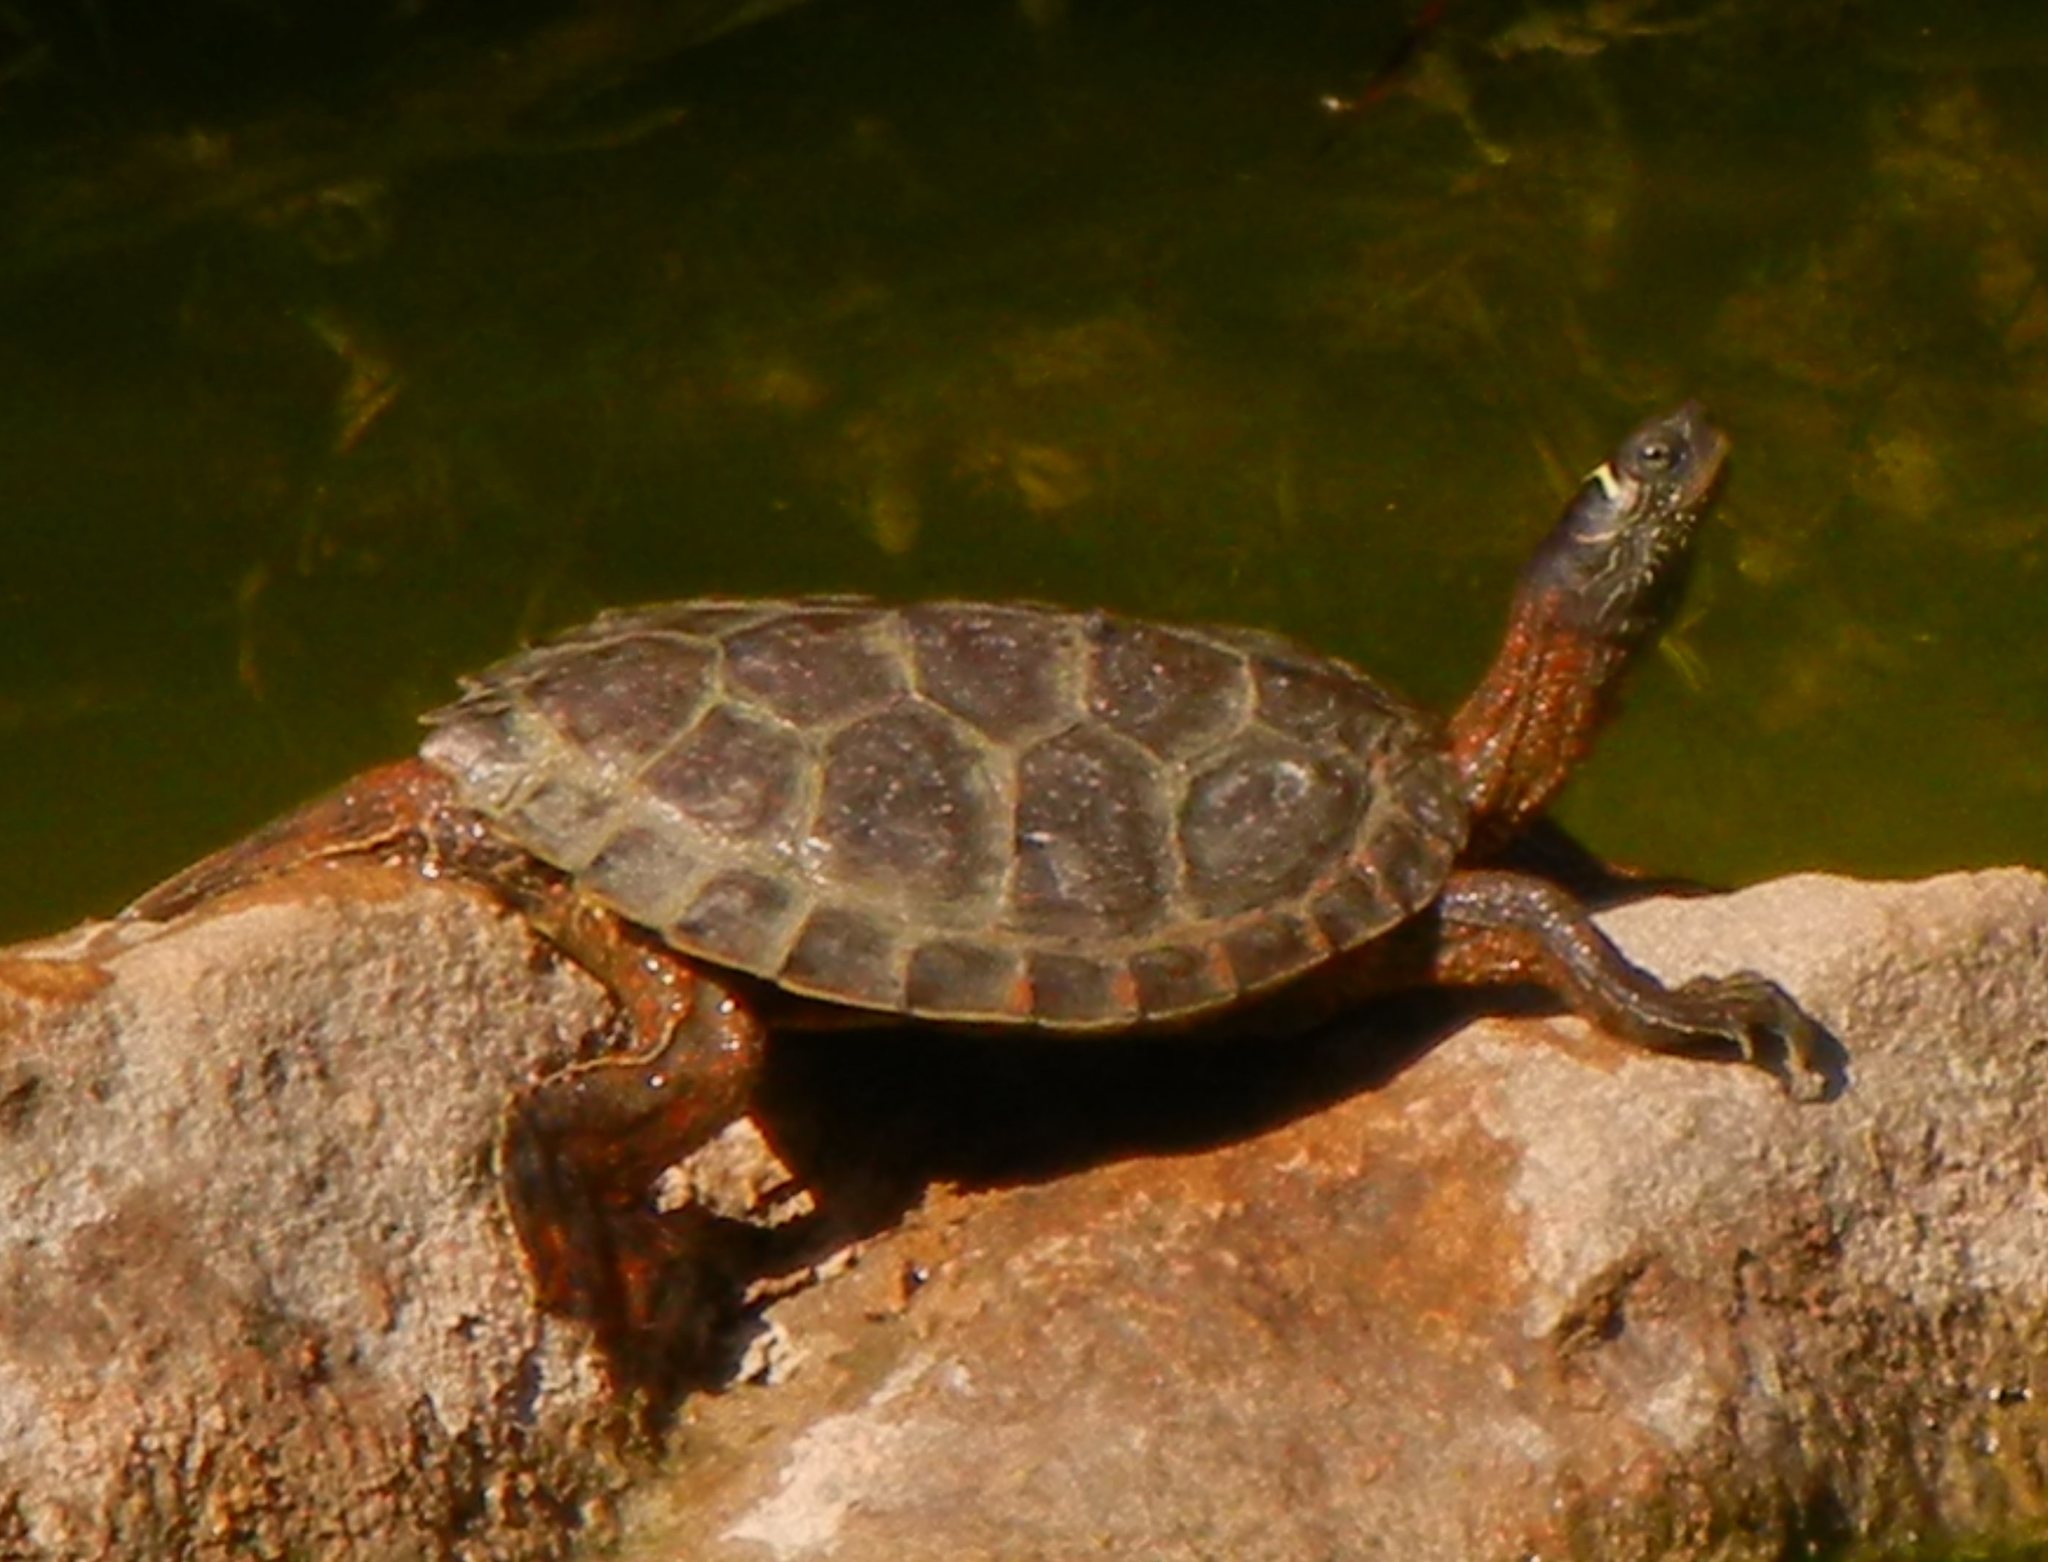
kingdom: Animalia
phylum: Chordata
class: Testudines
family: Emydidae
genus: Graptemys
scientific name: Graptemys pseudogeographica
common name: False map turtle
